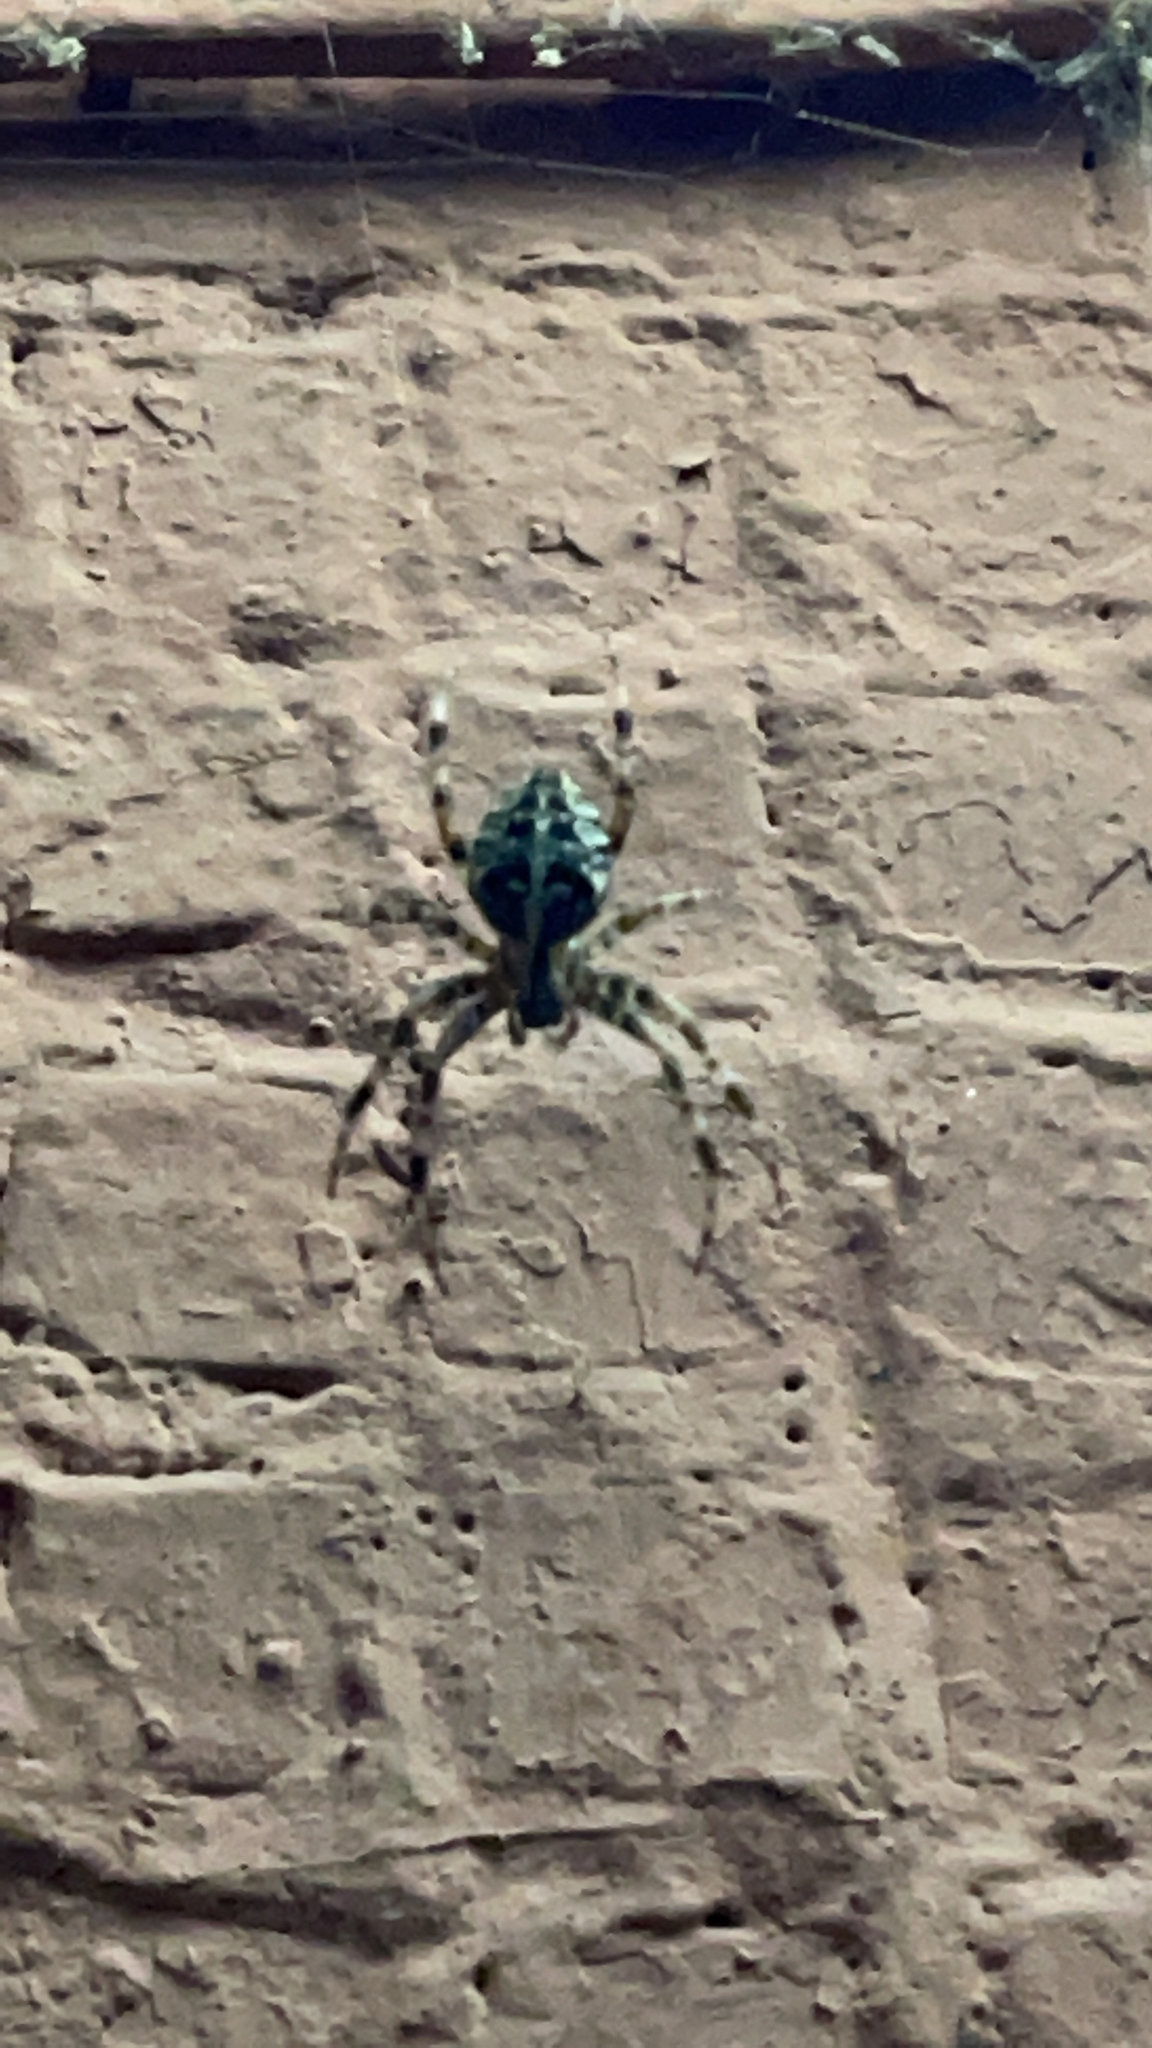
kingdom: Animalia
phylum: Arthropoda
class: Arachnida
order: Araneae
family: Araneidae
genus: Araneus
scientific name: Araneus diadematus
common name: Cross orbweaver
